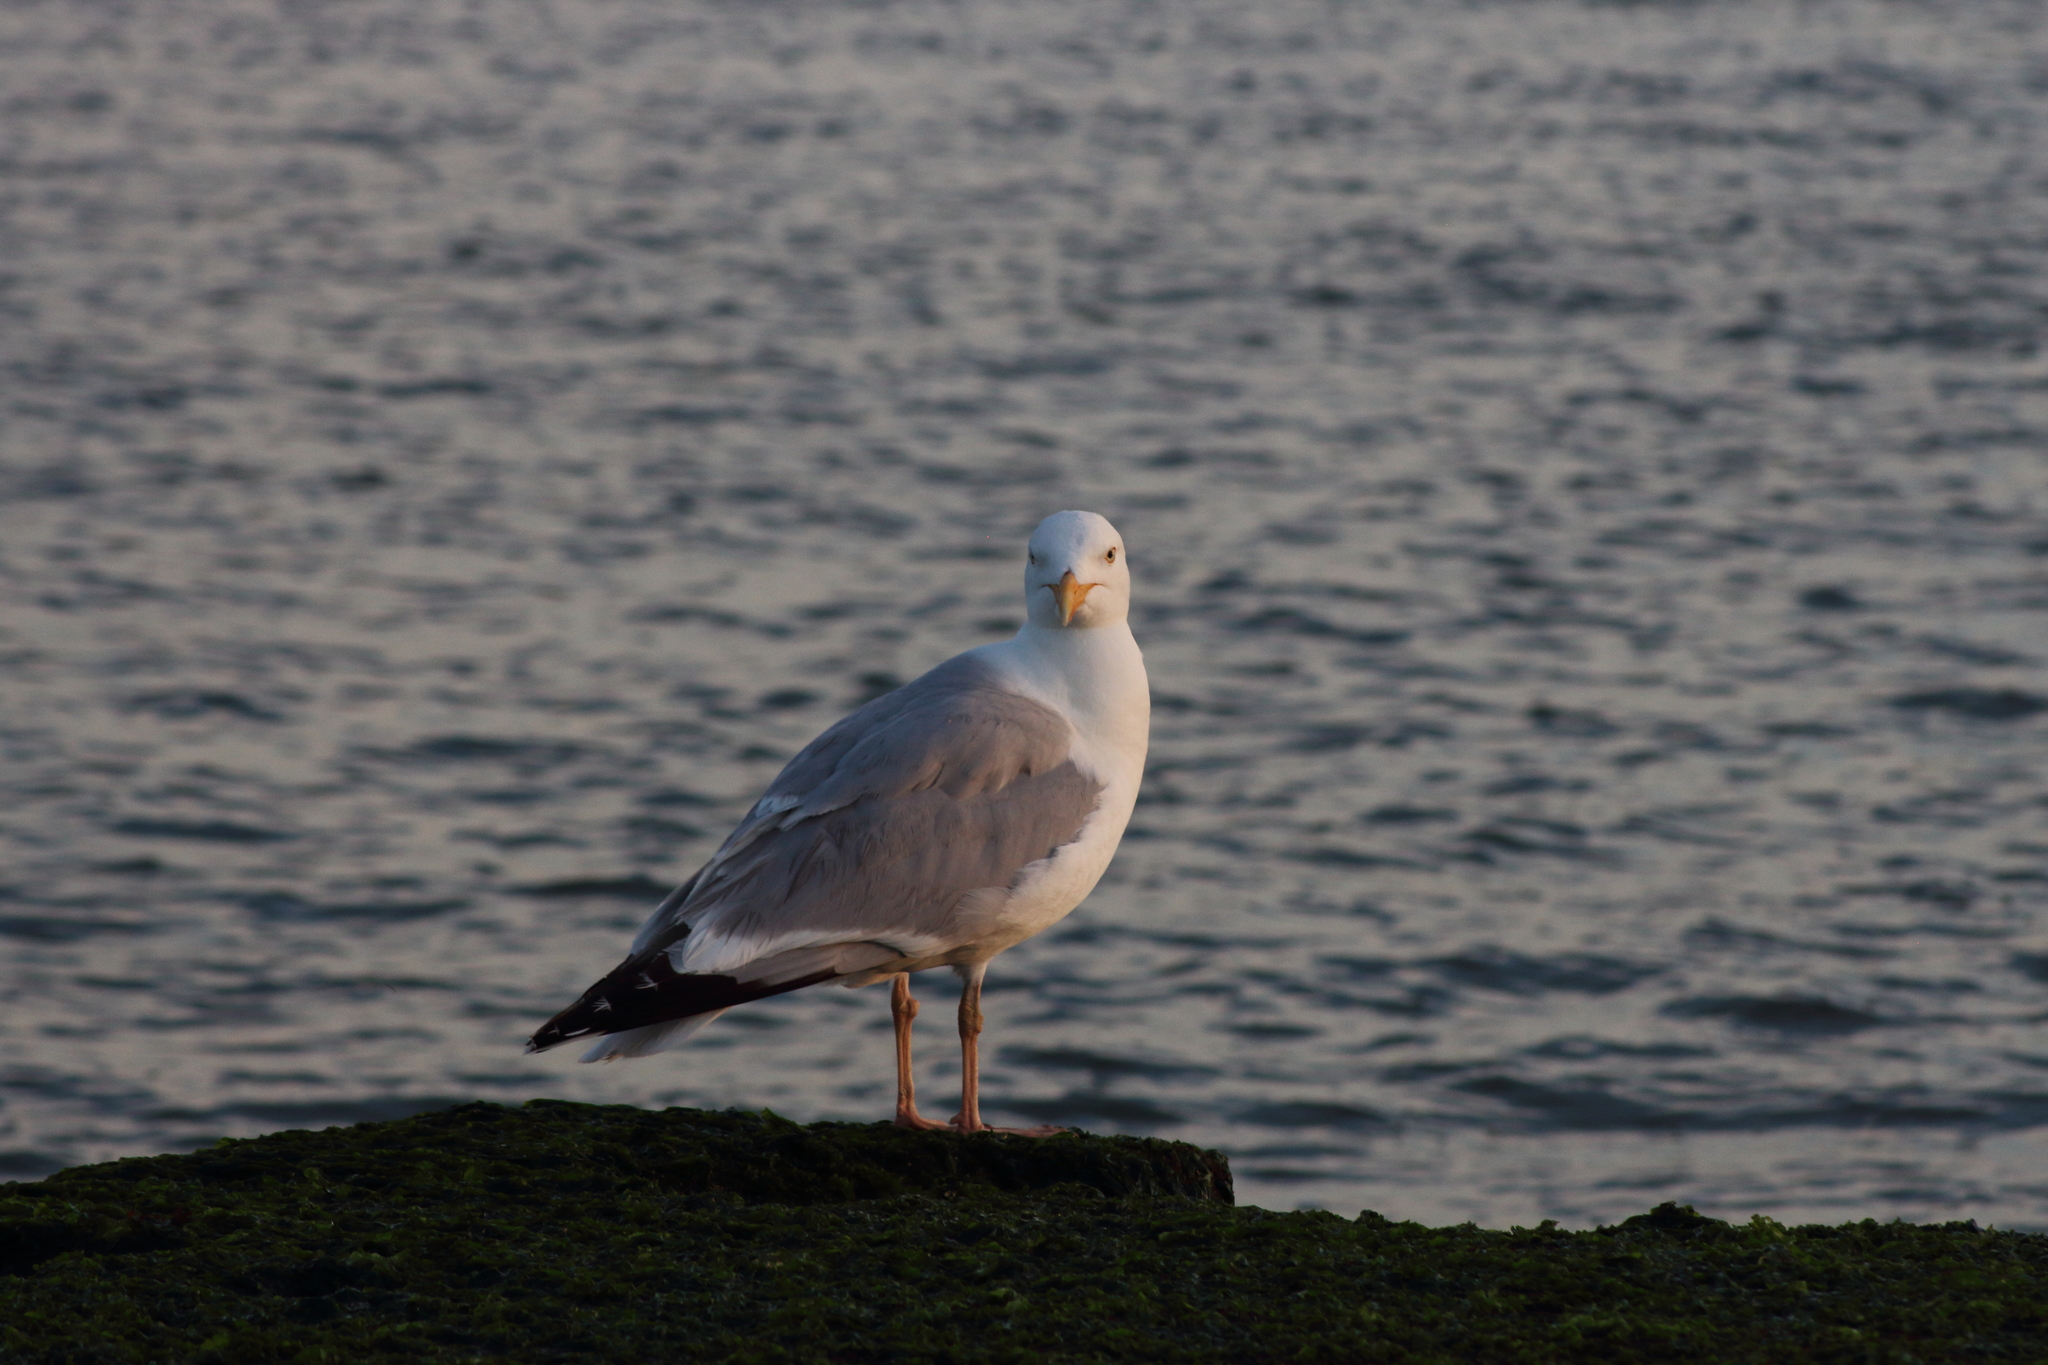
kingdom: Animalia
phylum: Chordata
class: Aves
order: Charadriiformes
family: Laridae
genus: Larus
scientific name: Larus argentatus
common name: Herring gull
